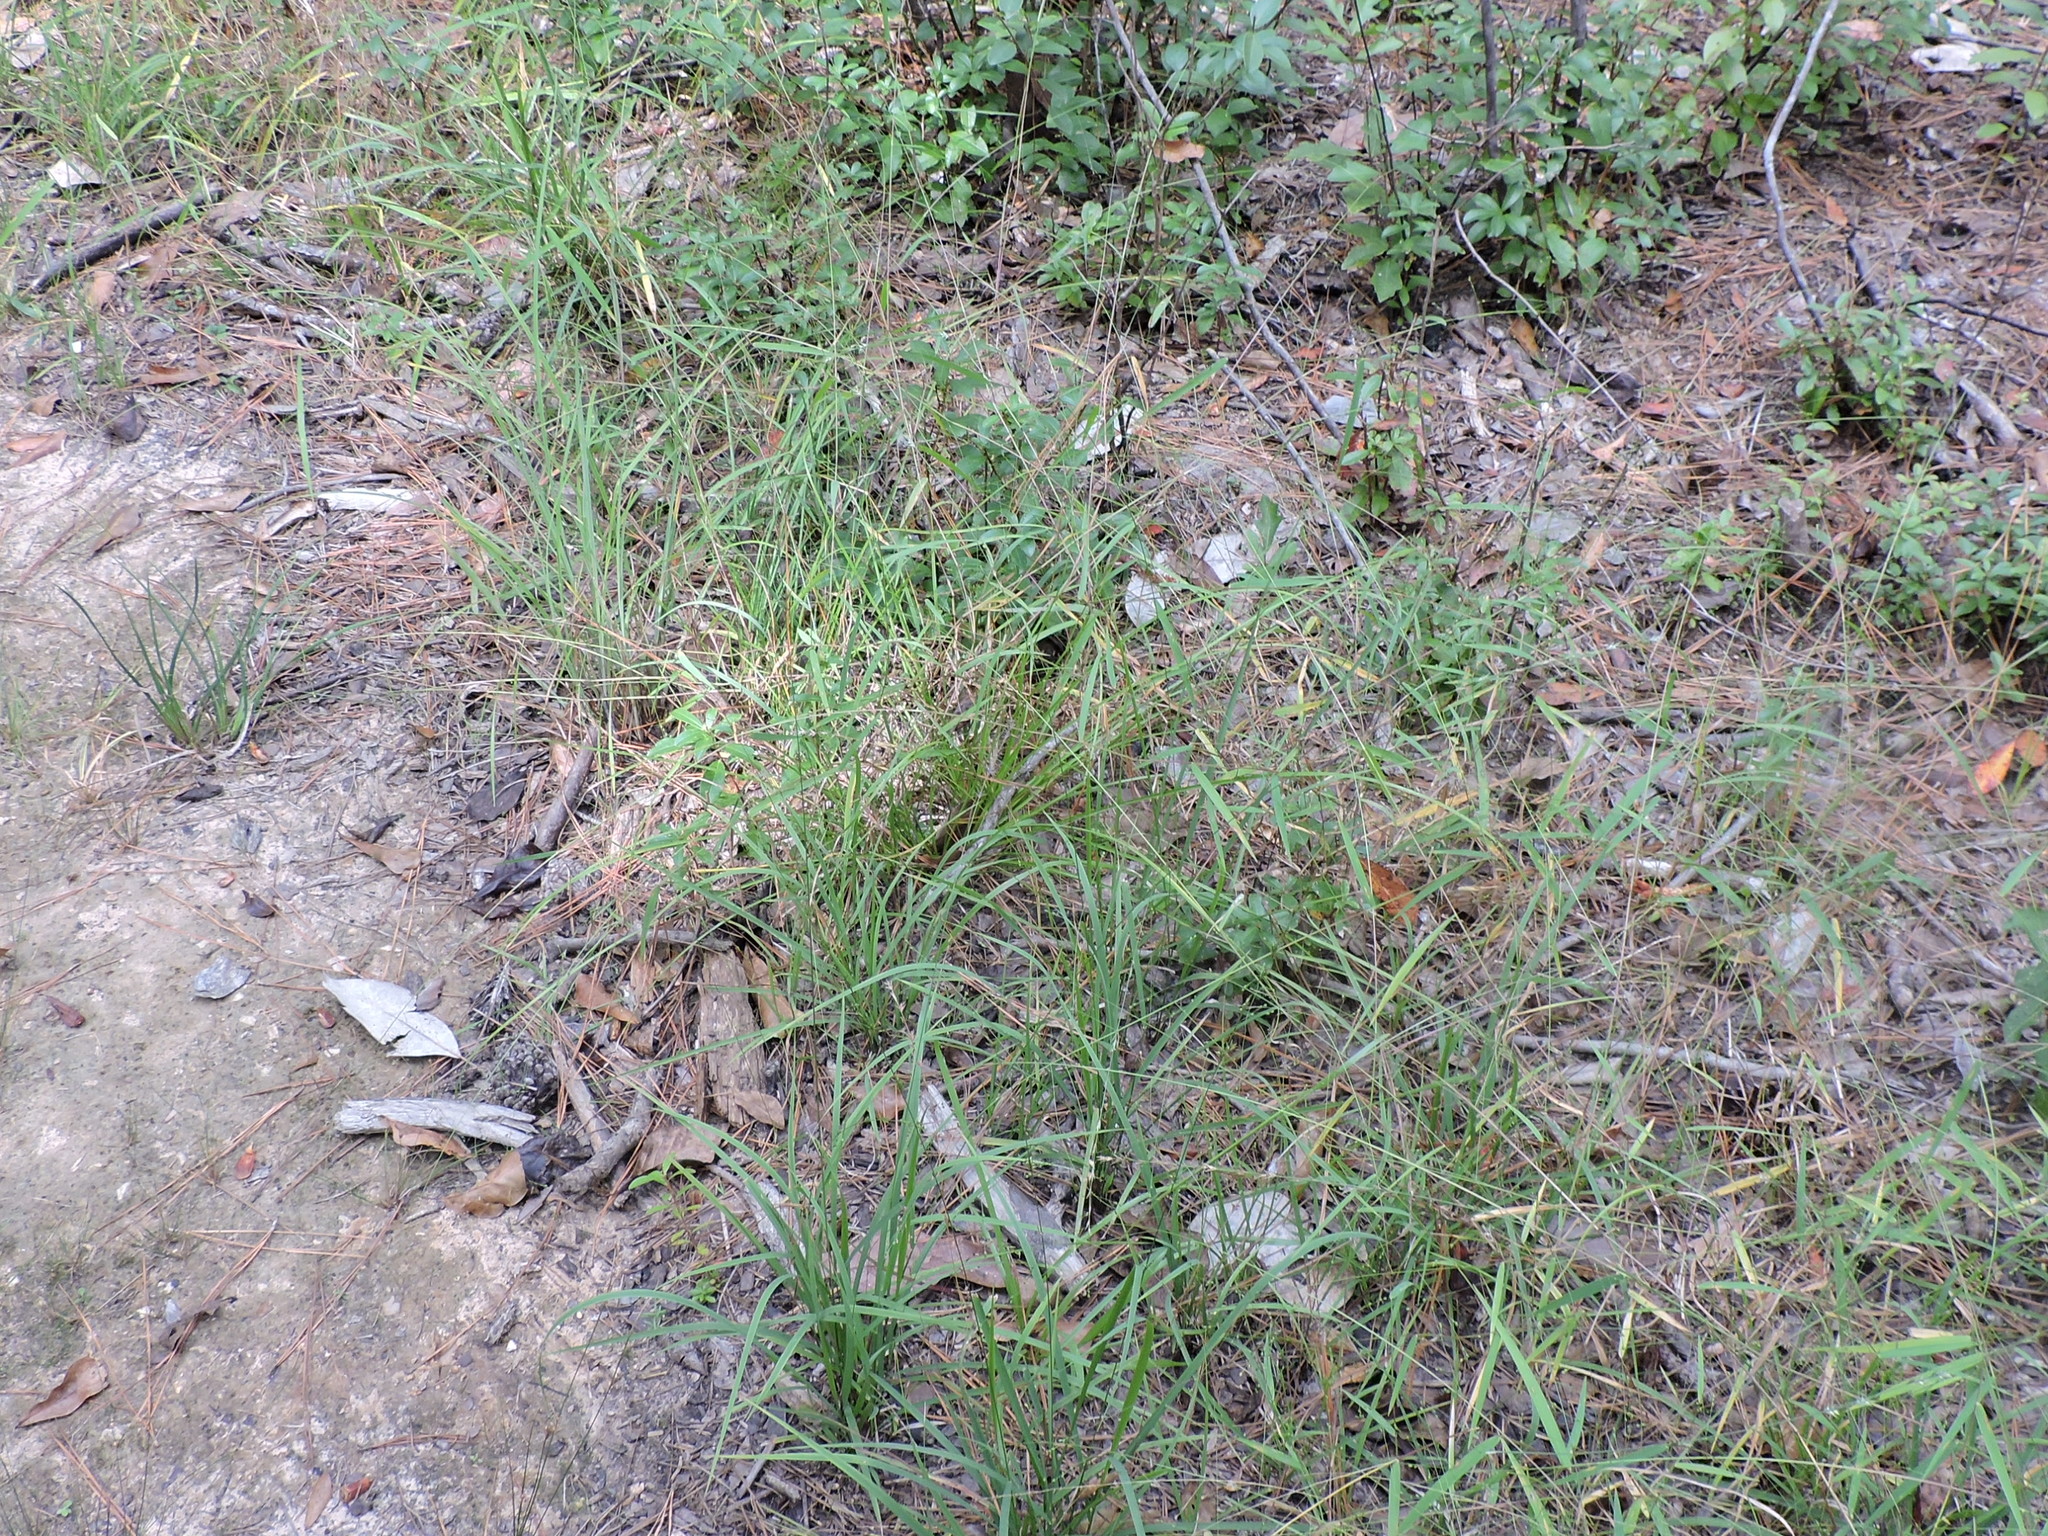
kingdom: Plantae
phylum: Tracheophyta
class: Liliopsida
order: Poales
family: Poaceae
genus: Chasmanthium
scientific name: Chasmanthium laxum
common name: Slender chasmanthium
